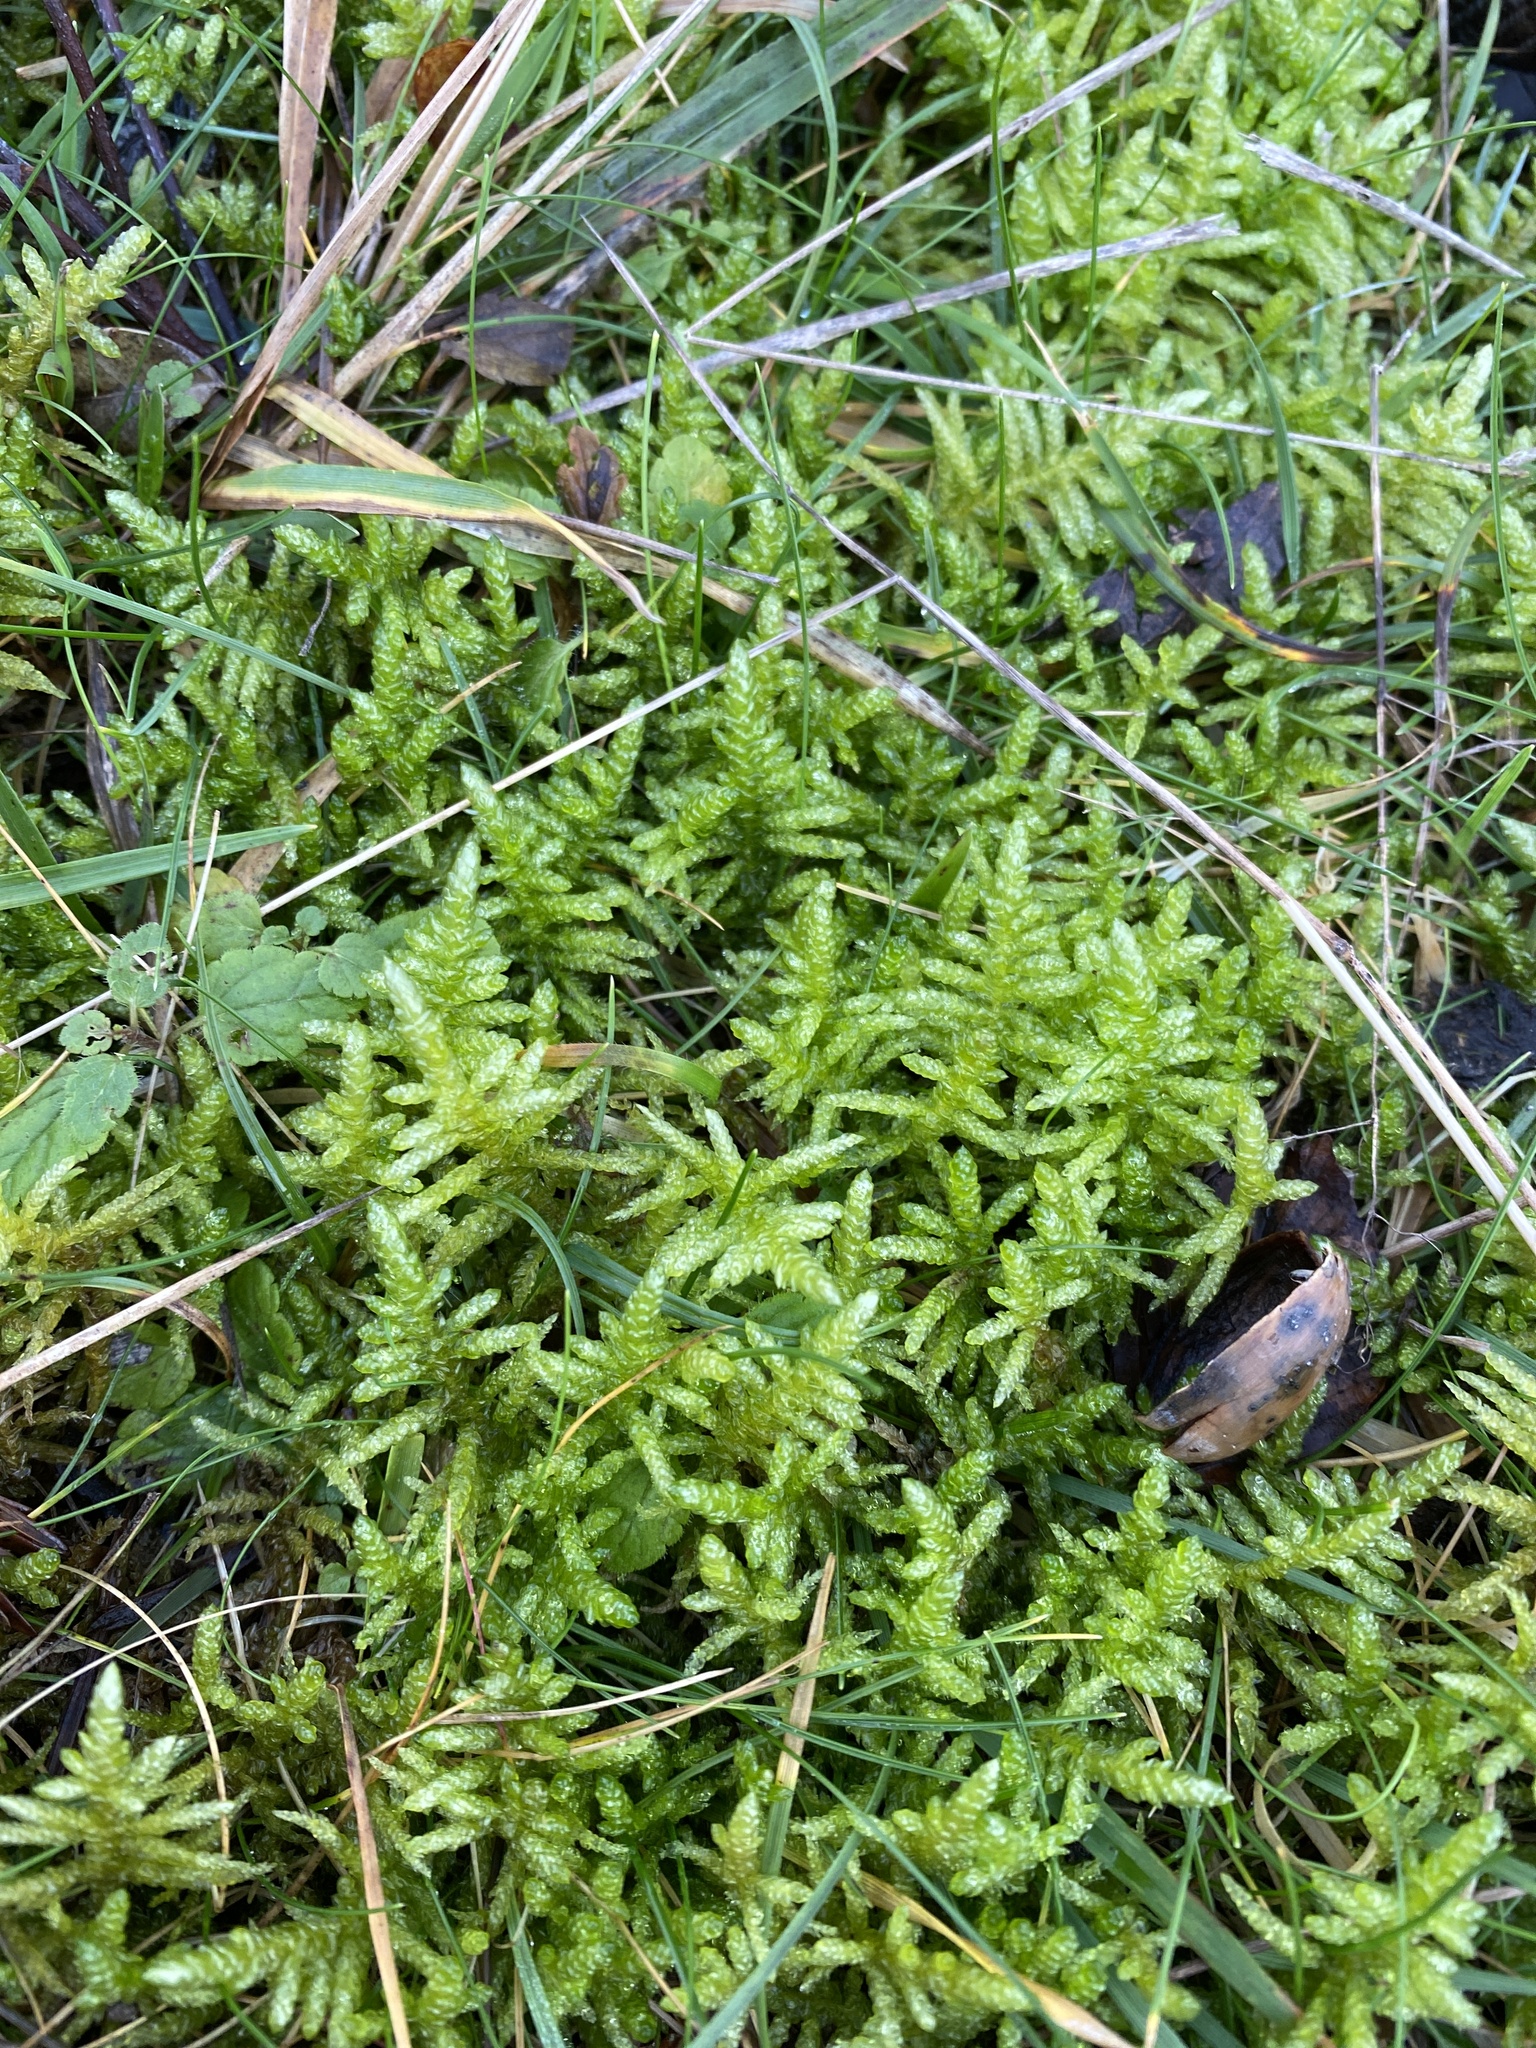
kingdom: Plantae
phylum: Bryophyta
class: Bryopsida
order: Hypnales
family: Brachytheciaceae
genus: Pseudoscleropodium
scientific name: Pseudoscleropodium purum
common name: Neat feather-moss
